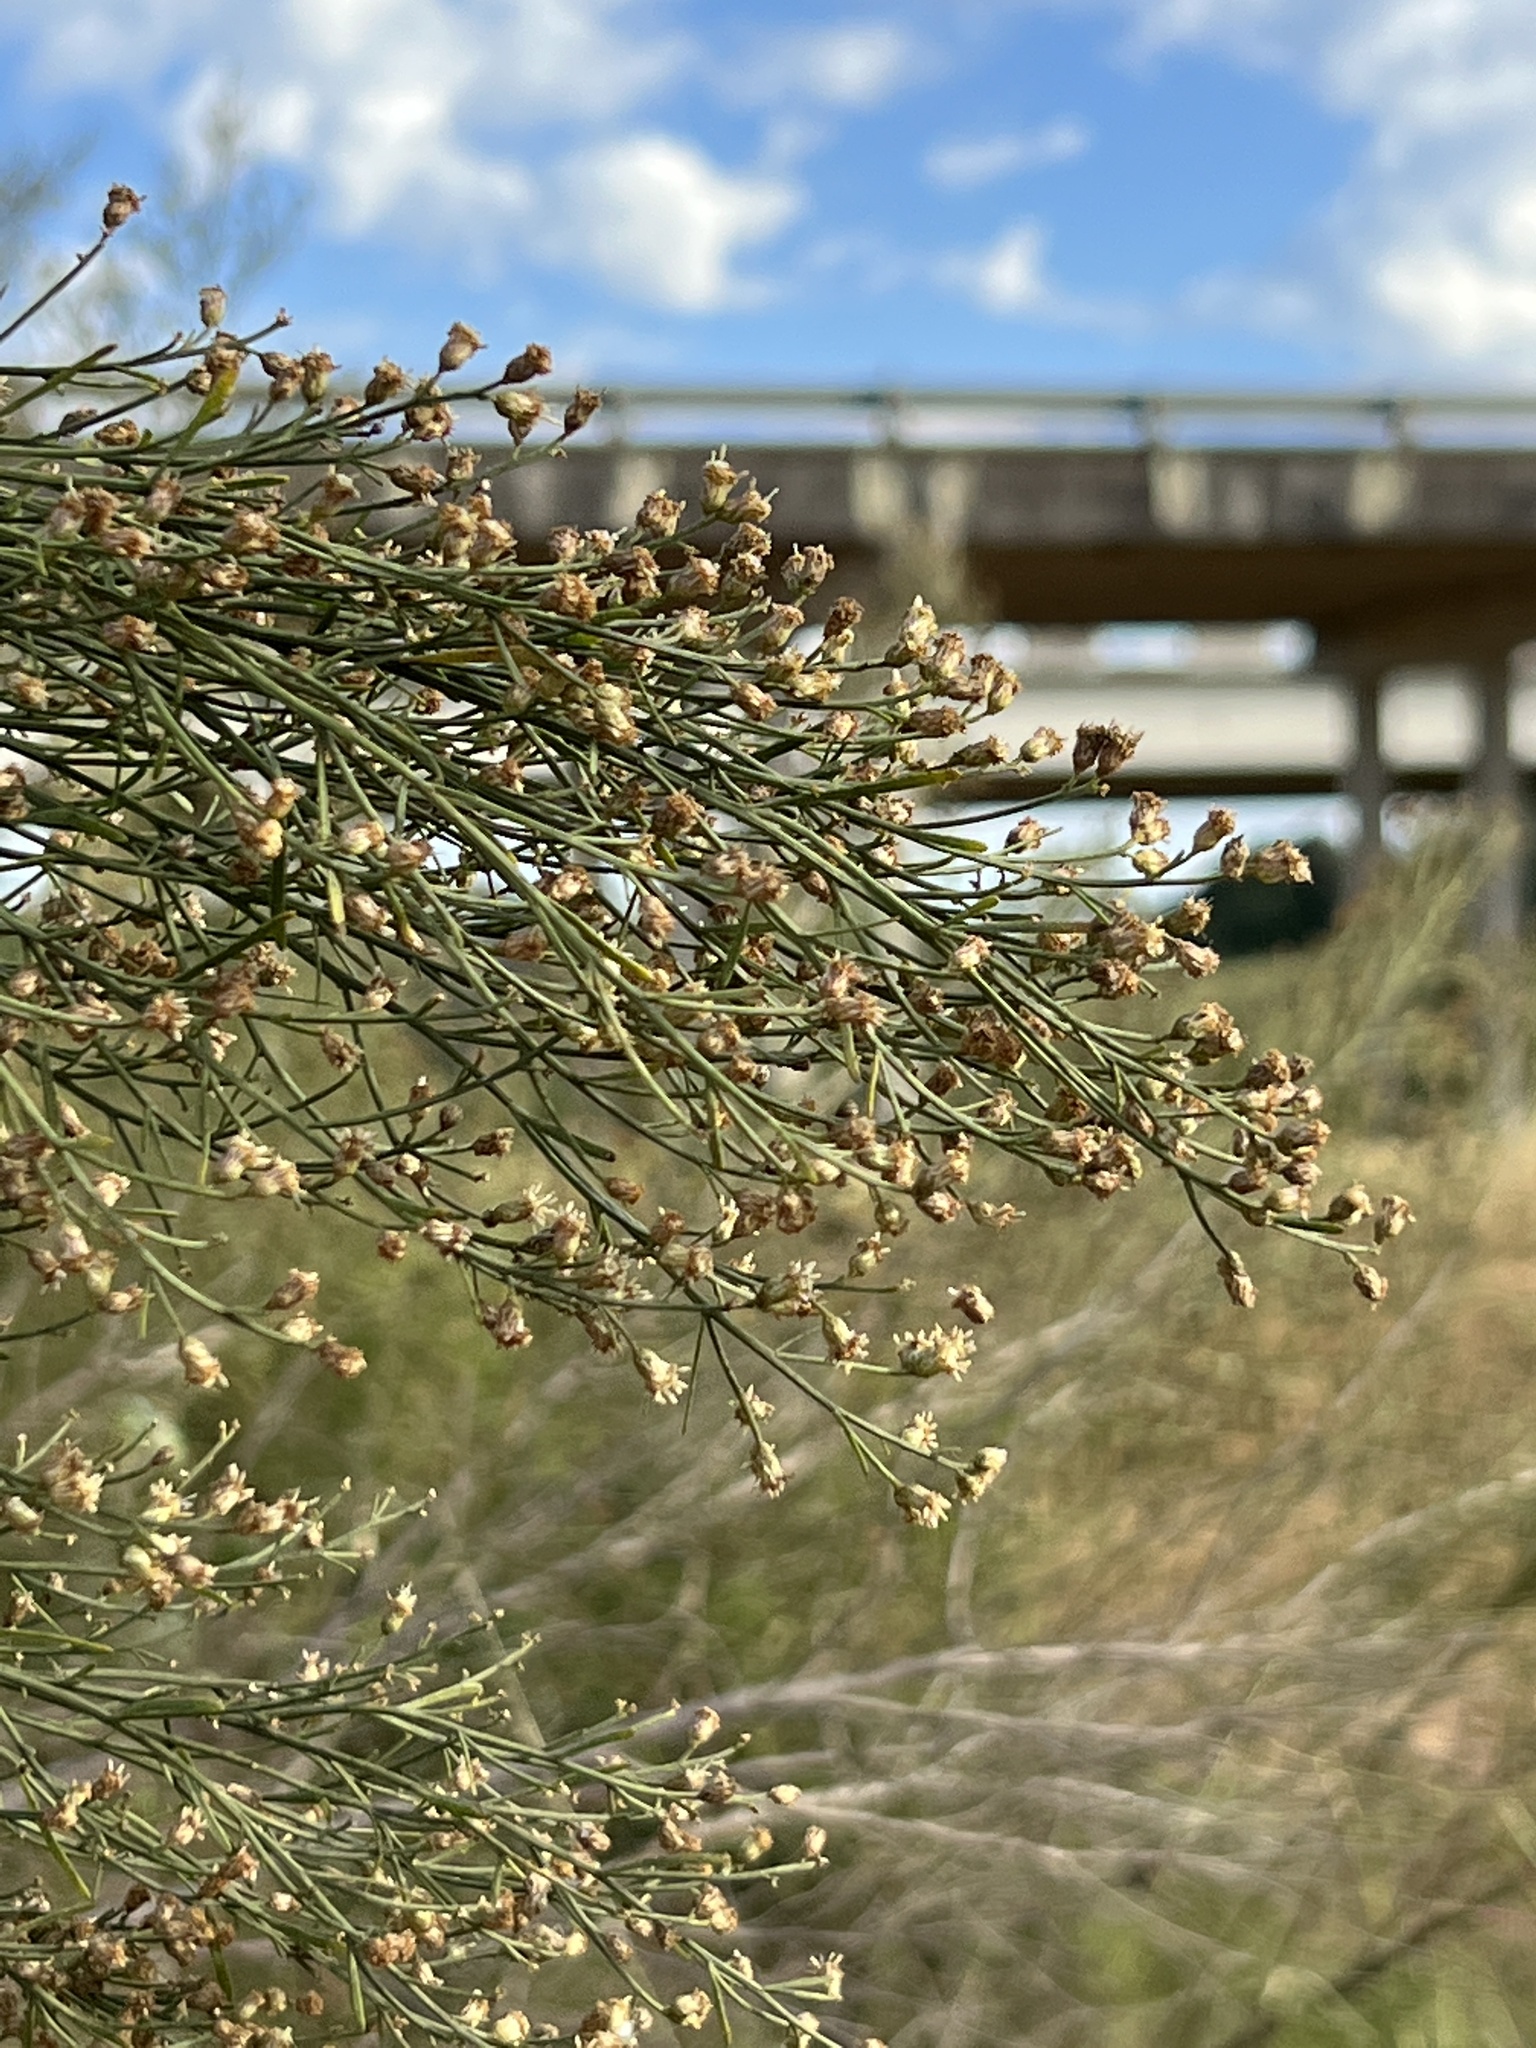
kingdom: Plantae
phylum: Tracheophyta
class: Magnoliopsida
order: Asterales
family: Asteraceae
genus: Baccharis
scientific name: Baccharis neglecta
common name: Roosevelt-weed
